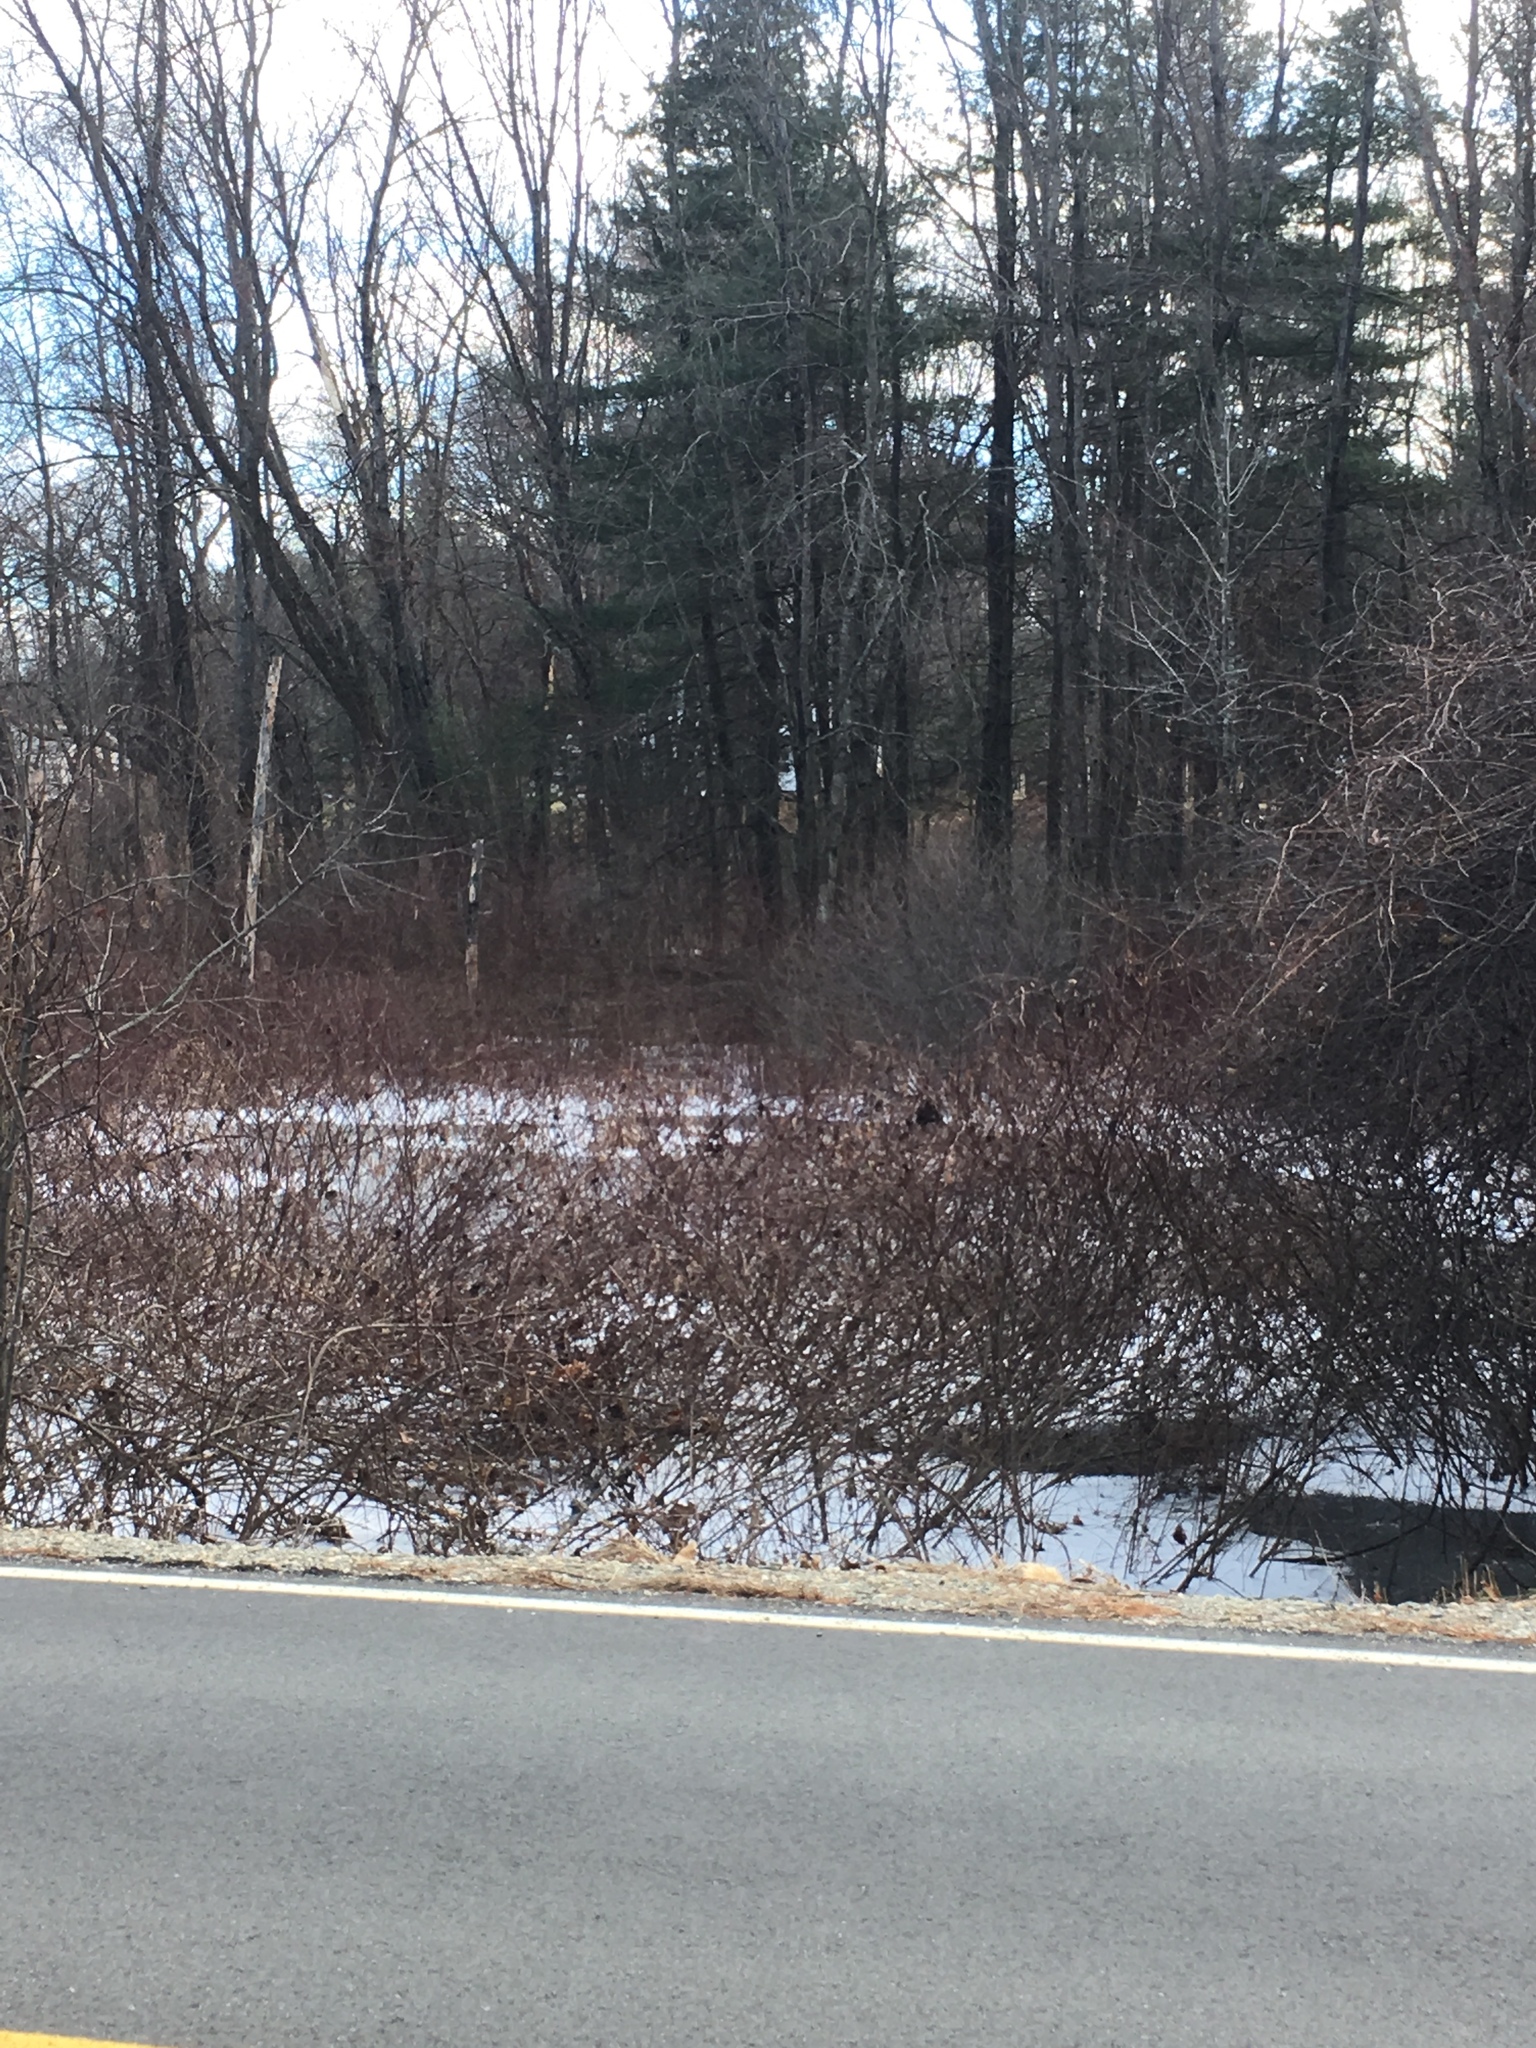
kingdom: Plantae
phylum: Tracheophyta
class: Pinopsida
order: Pinales
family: Pinaceae
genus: Pinus
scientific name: Pinus strobus
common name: Weymouth pine
